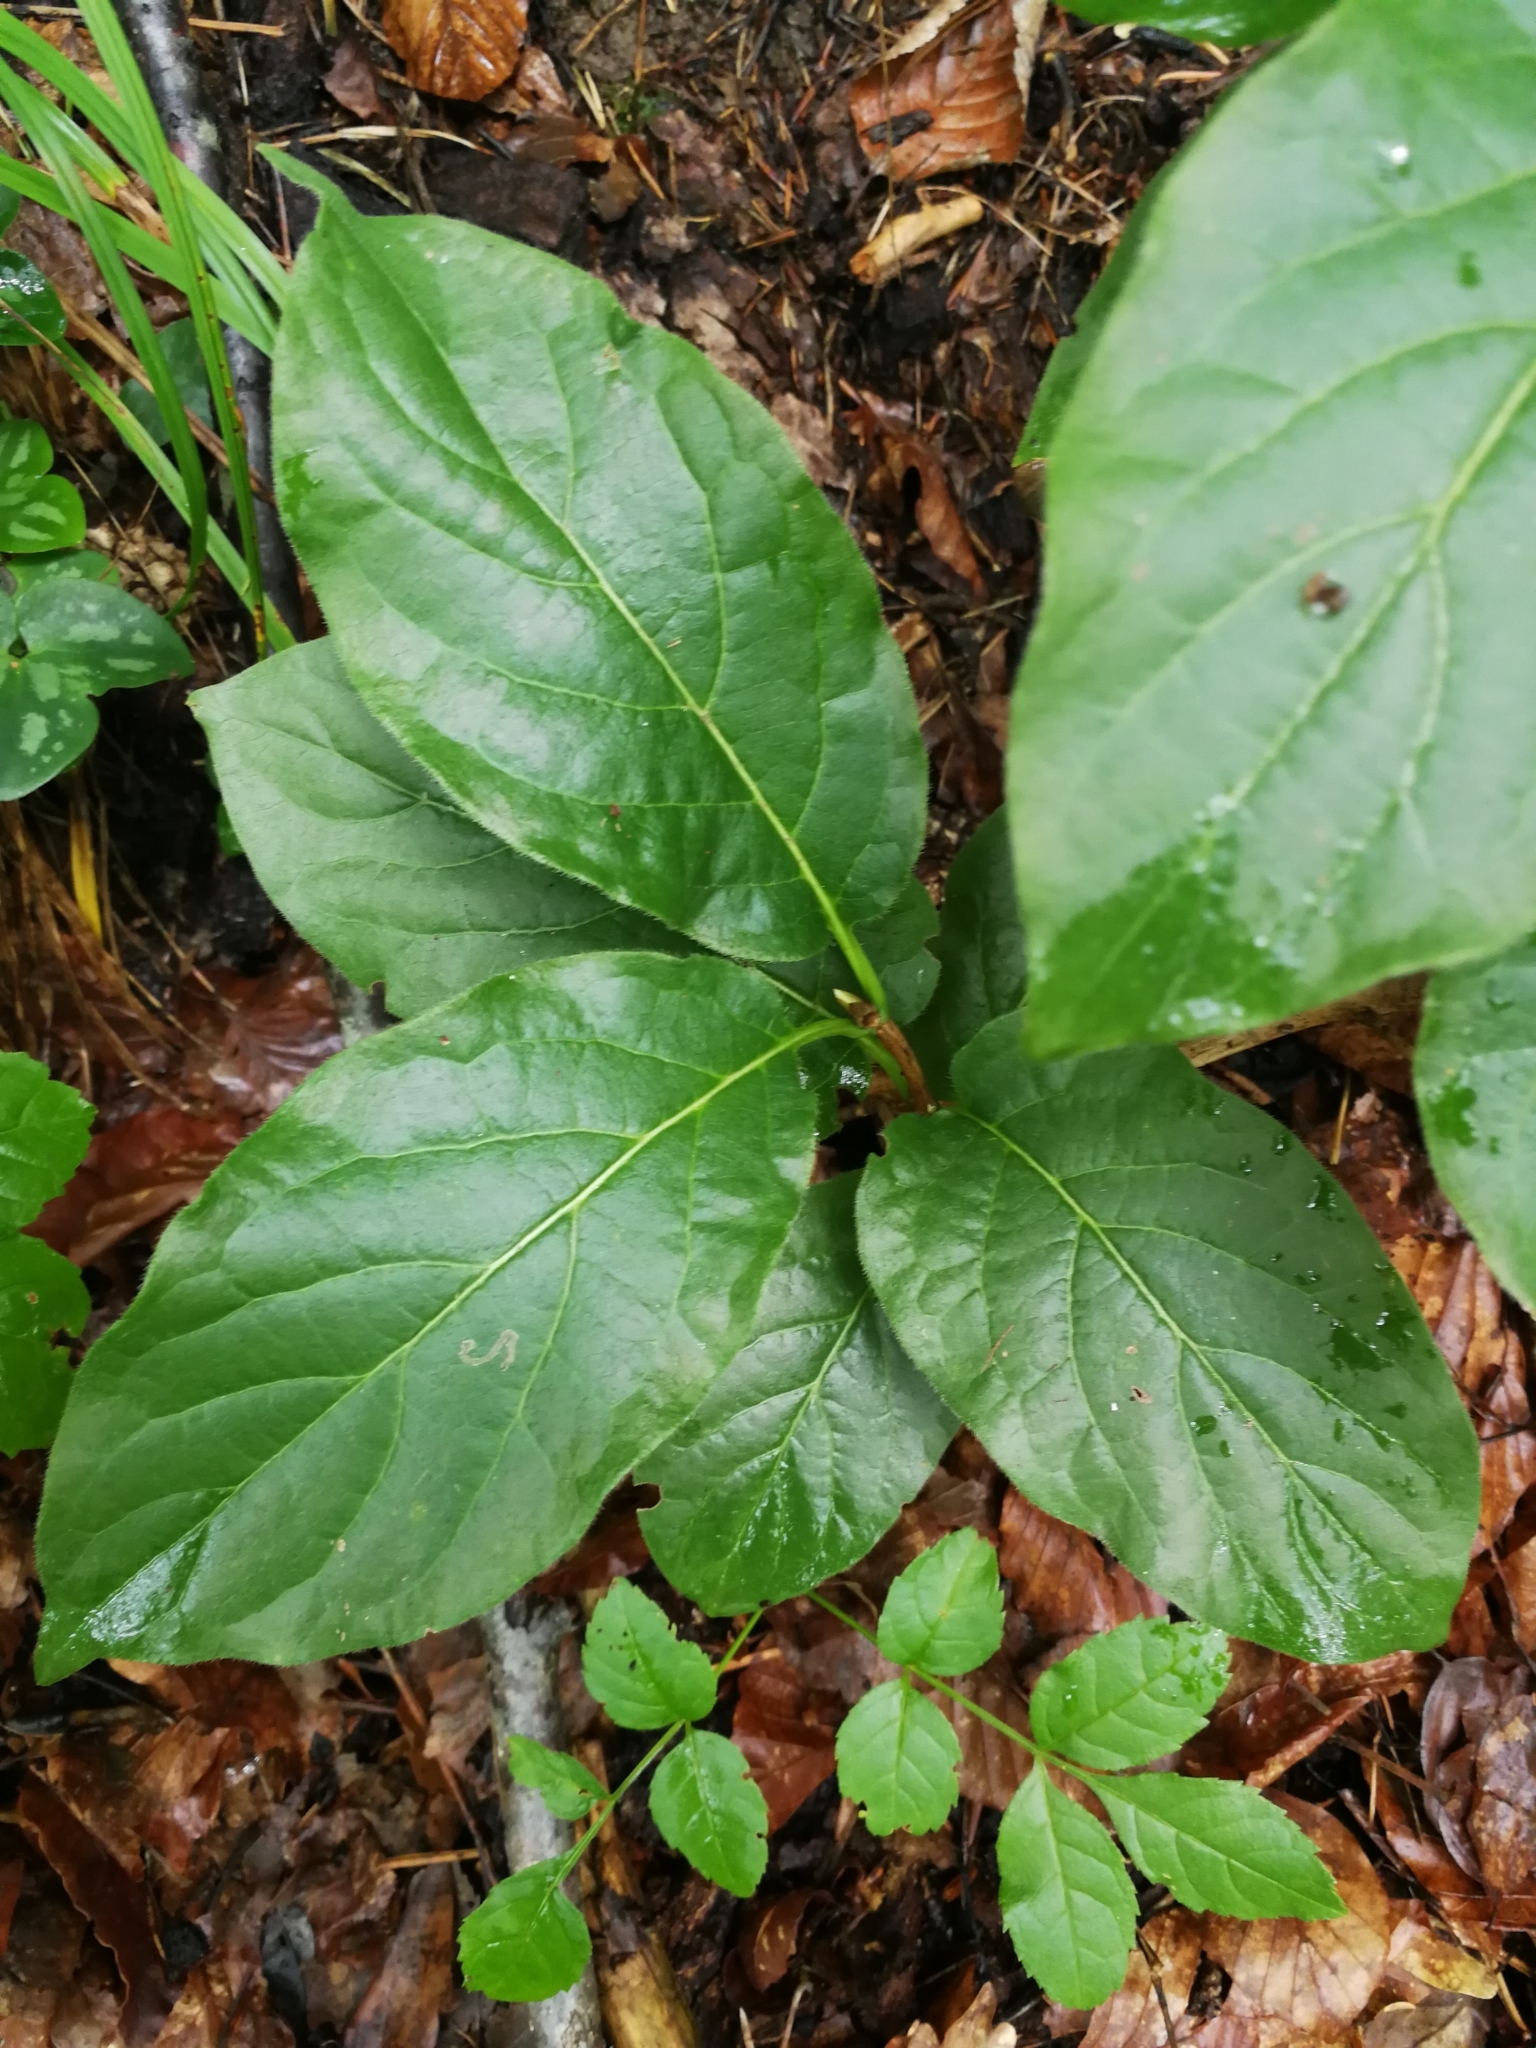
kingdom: Plantae
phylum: Tracheophyta
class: Magnoliopsida
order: Dipsacales
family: Caprifoliaceae
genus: Lonicera
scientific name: Lonicera alpigena
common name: Alpine honeysuckle
